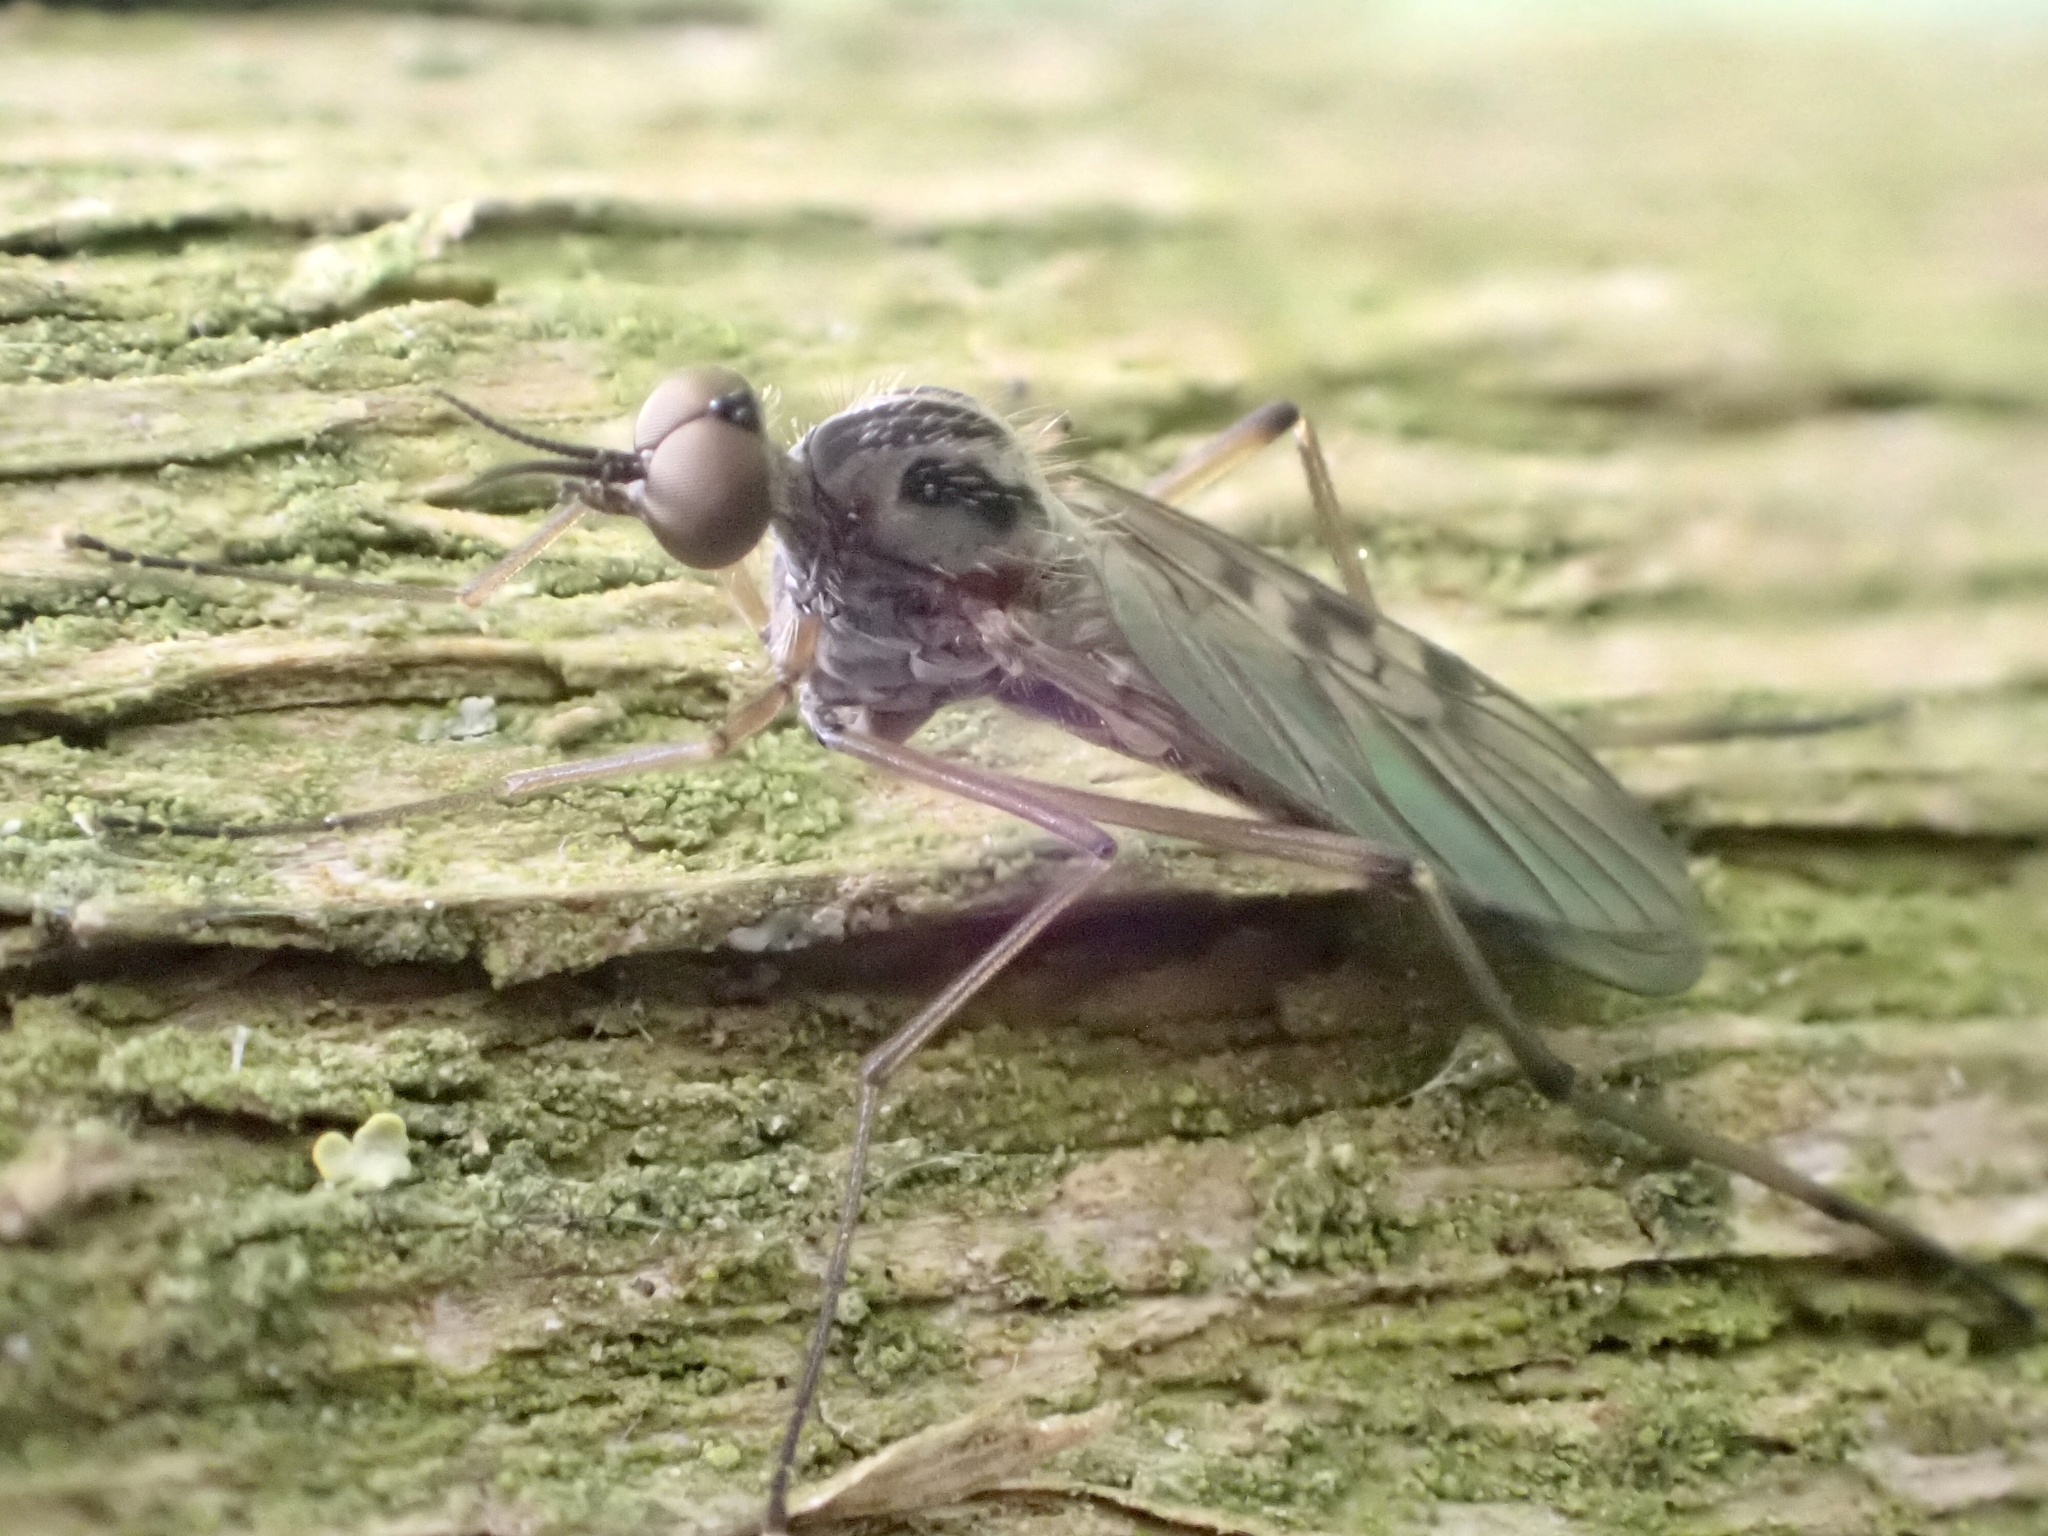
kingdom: Animalia
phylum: Arthropoda
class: Insecta
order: Diptera
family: Anisopodidae
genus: Sylvicola
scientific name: Sylvicola punctatus
